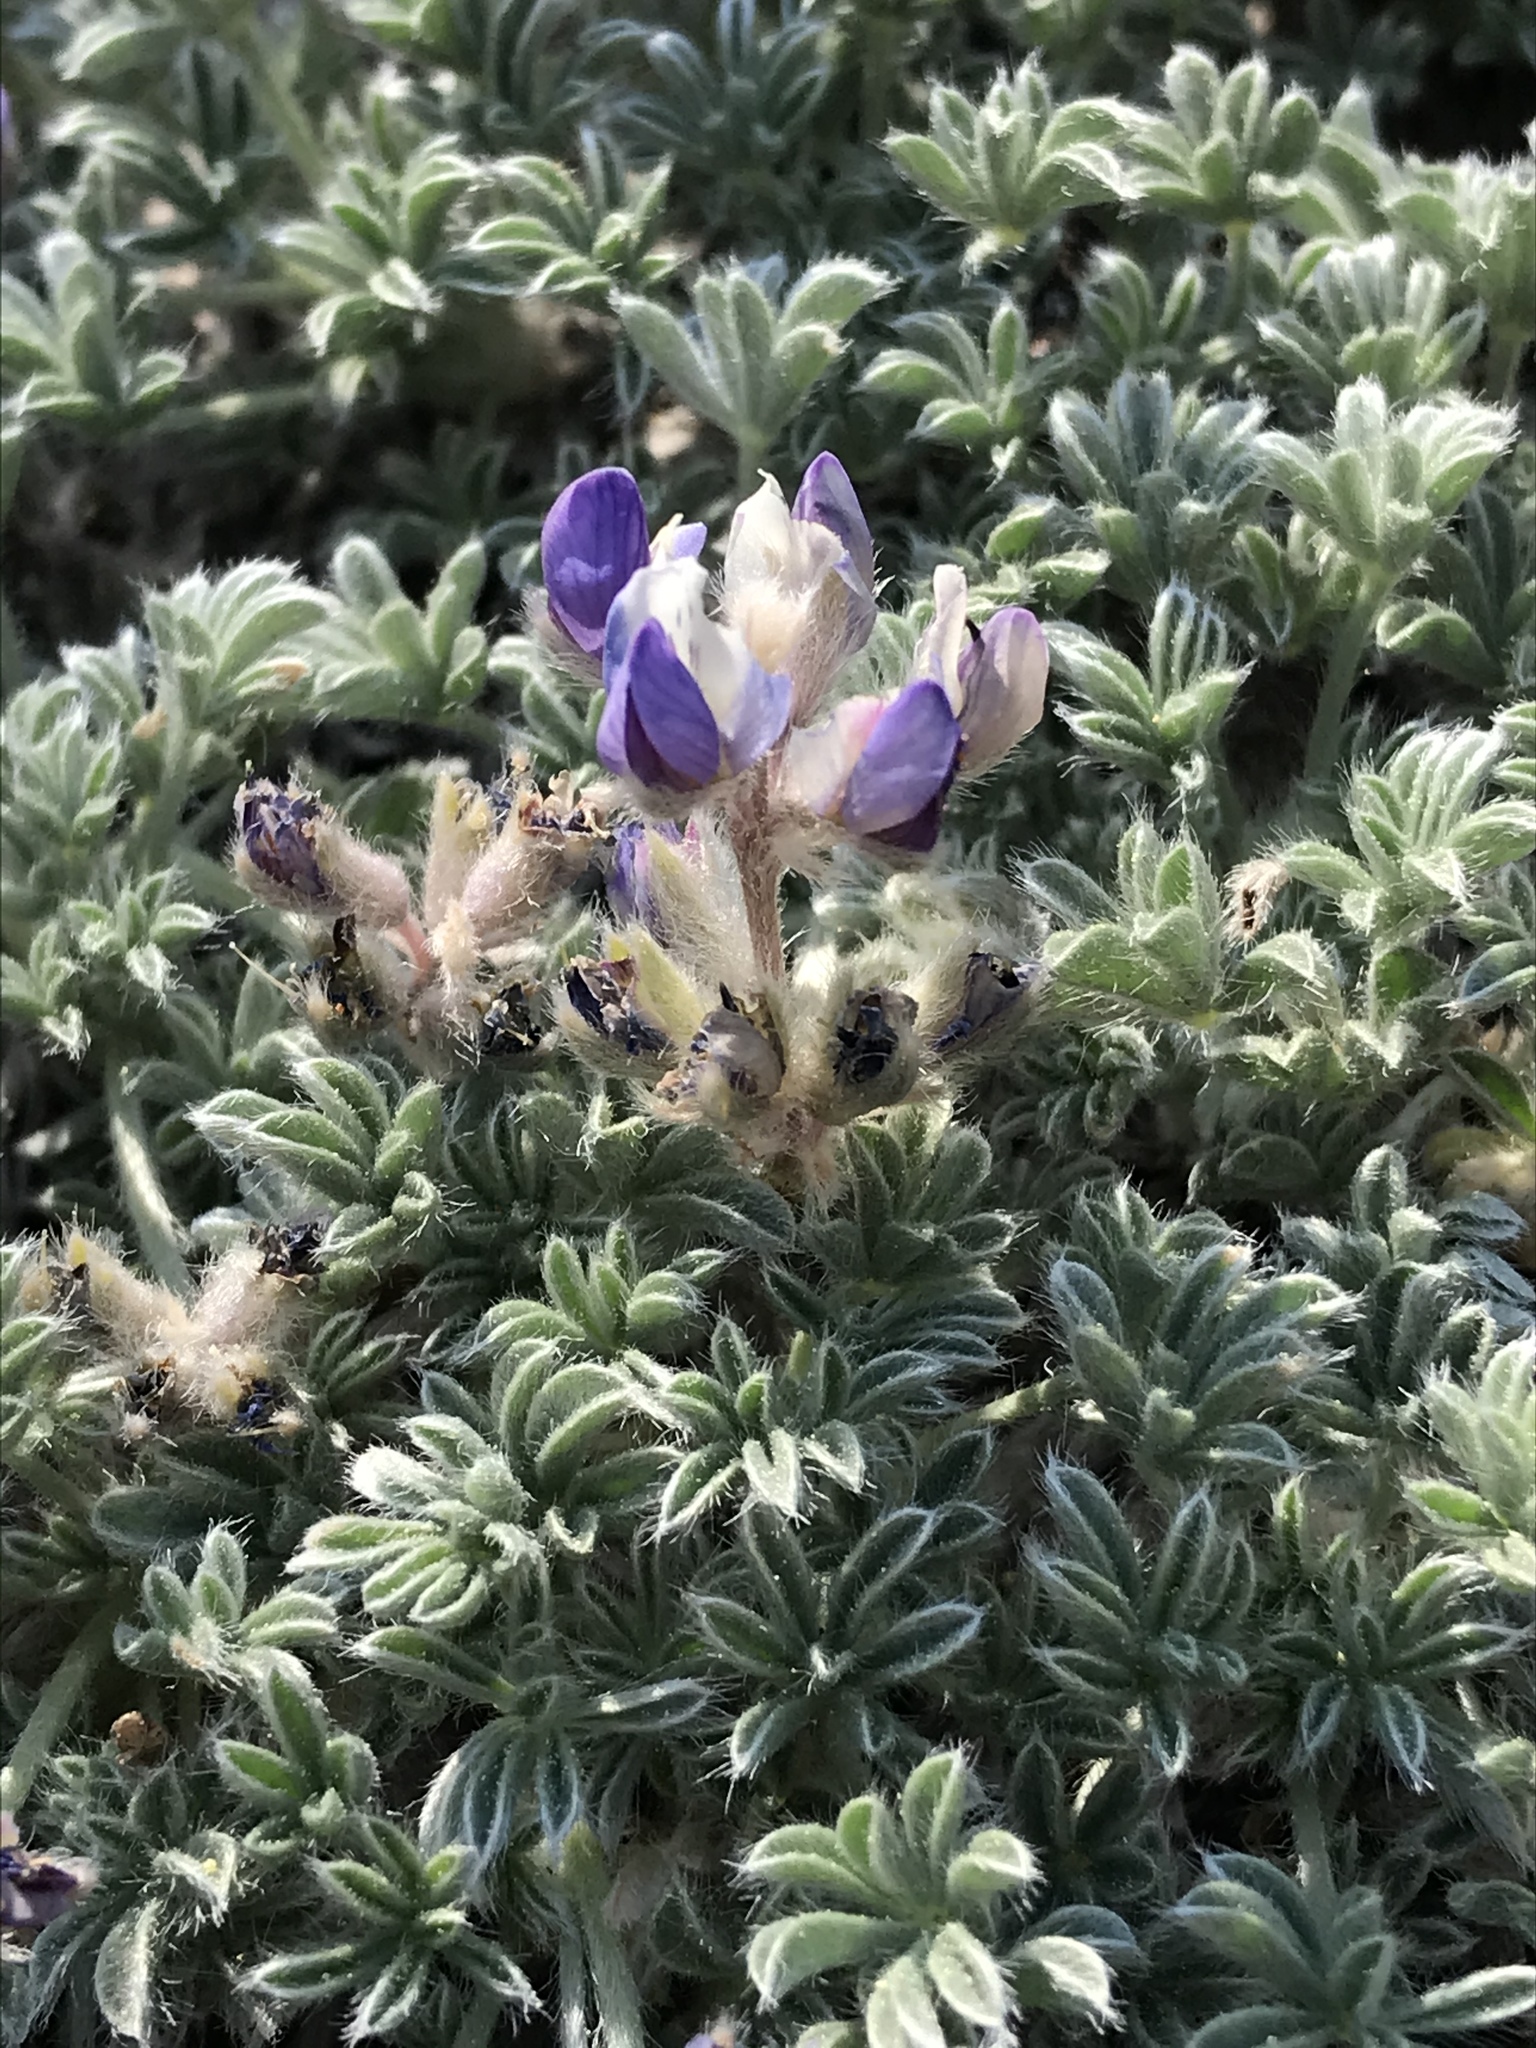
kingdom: Plantae
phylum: Tracheophyta
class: Magnoliopsida
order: Fabales
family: Fabaceae
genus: Lupinus
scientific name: Lupinus breweri
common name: Brewer's lupine
